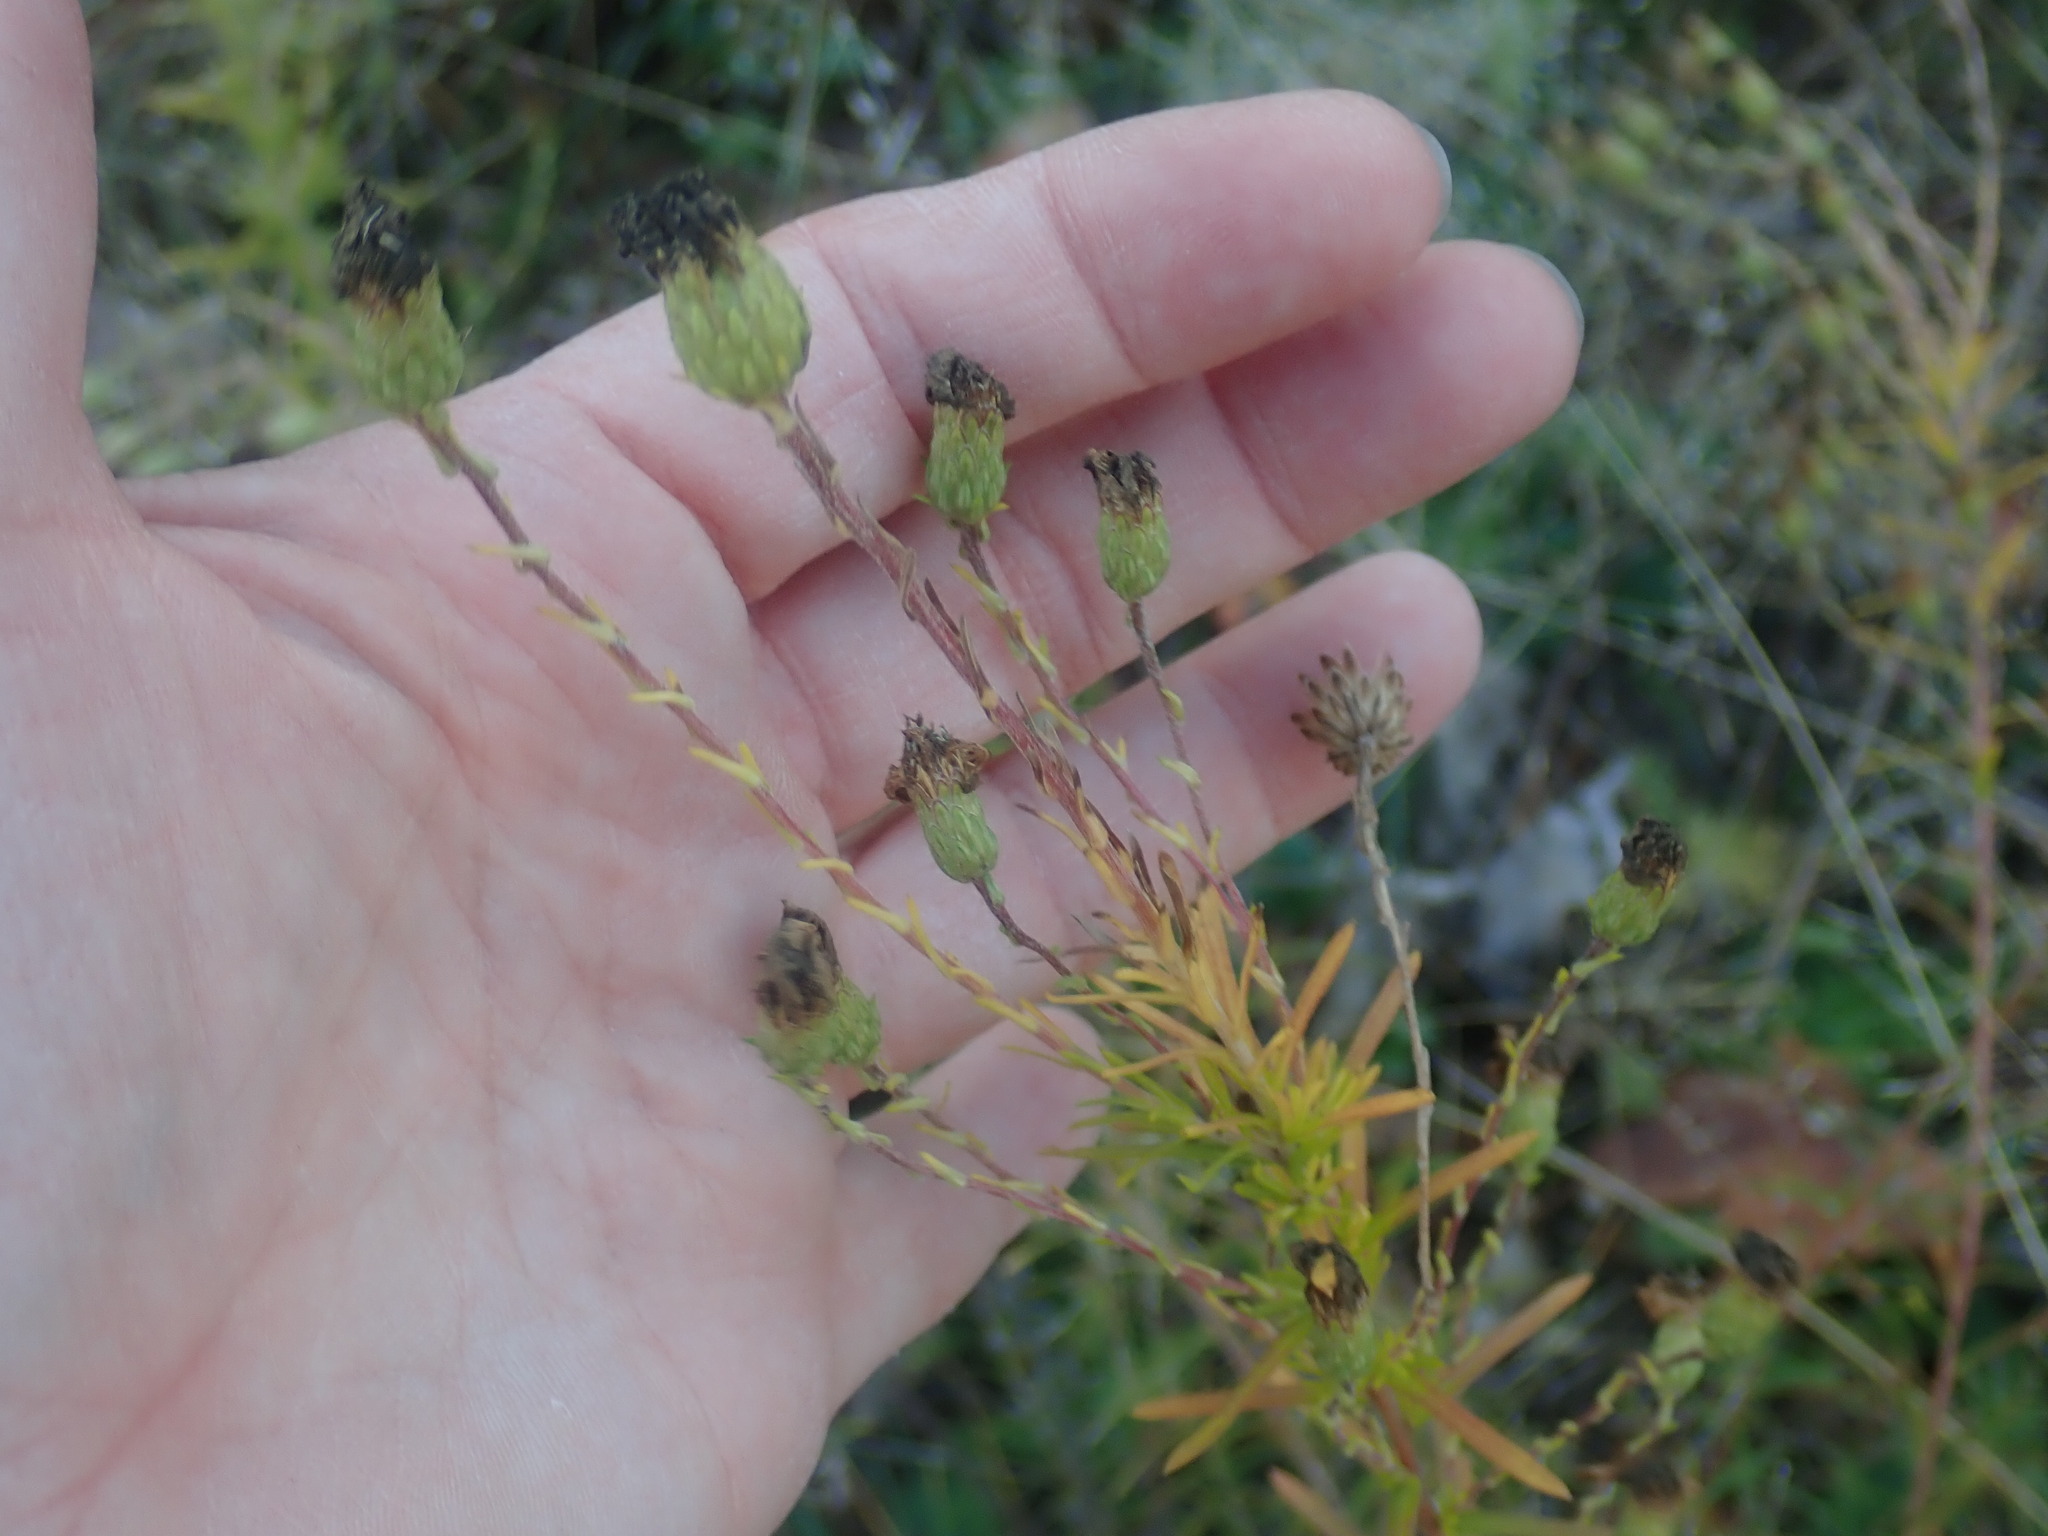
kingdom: Plantae
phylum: Tracheophyta
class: Magnoliopsida
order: Asterales
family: Asteraceae
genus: Ionactis
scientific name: Ionactis linariifolia
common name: Flax-leaf aster
